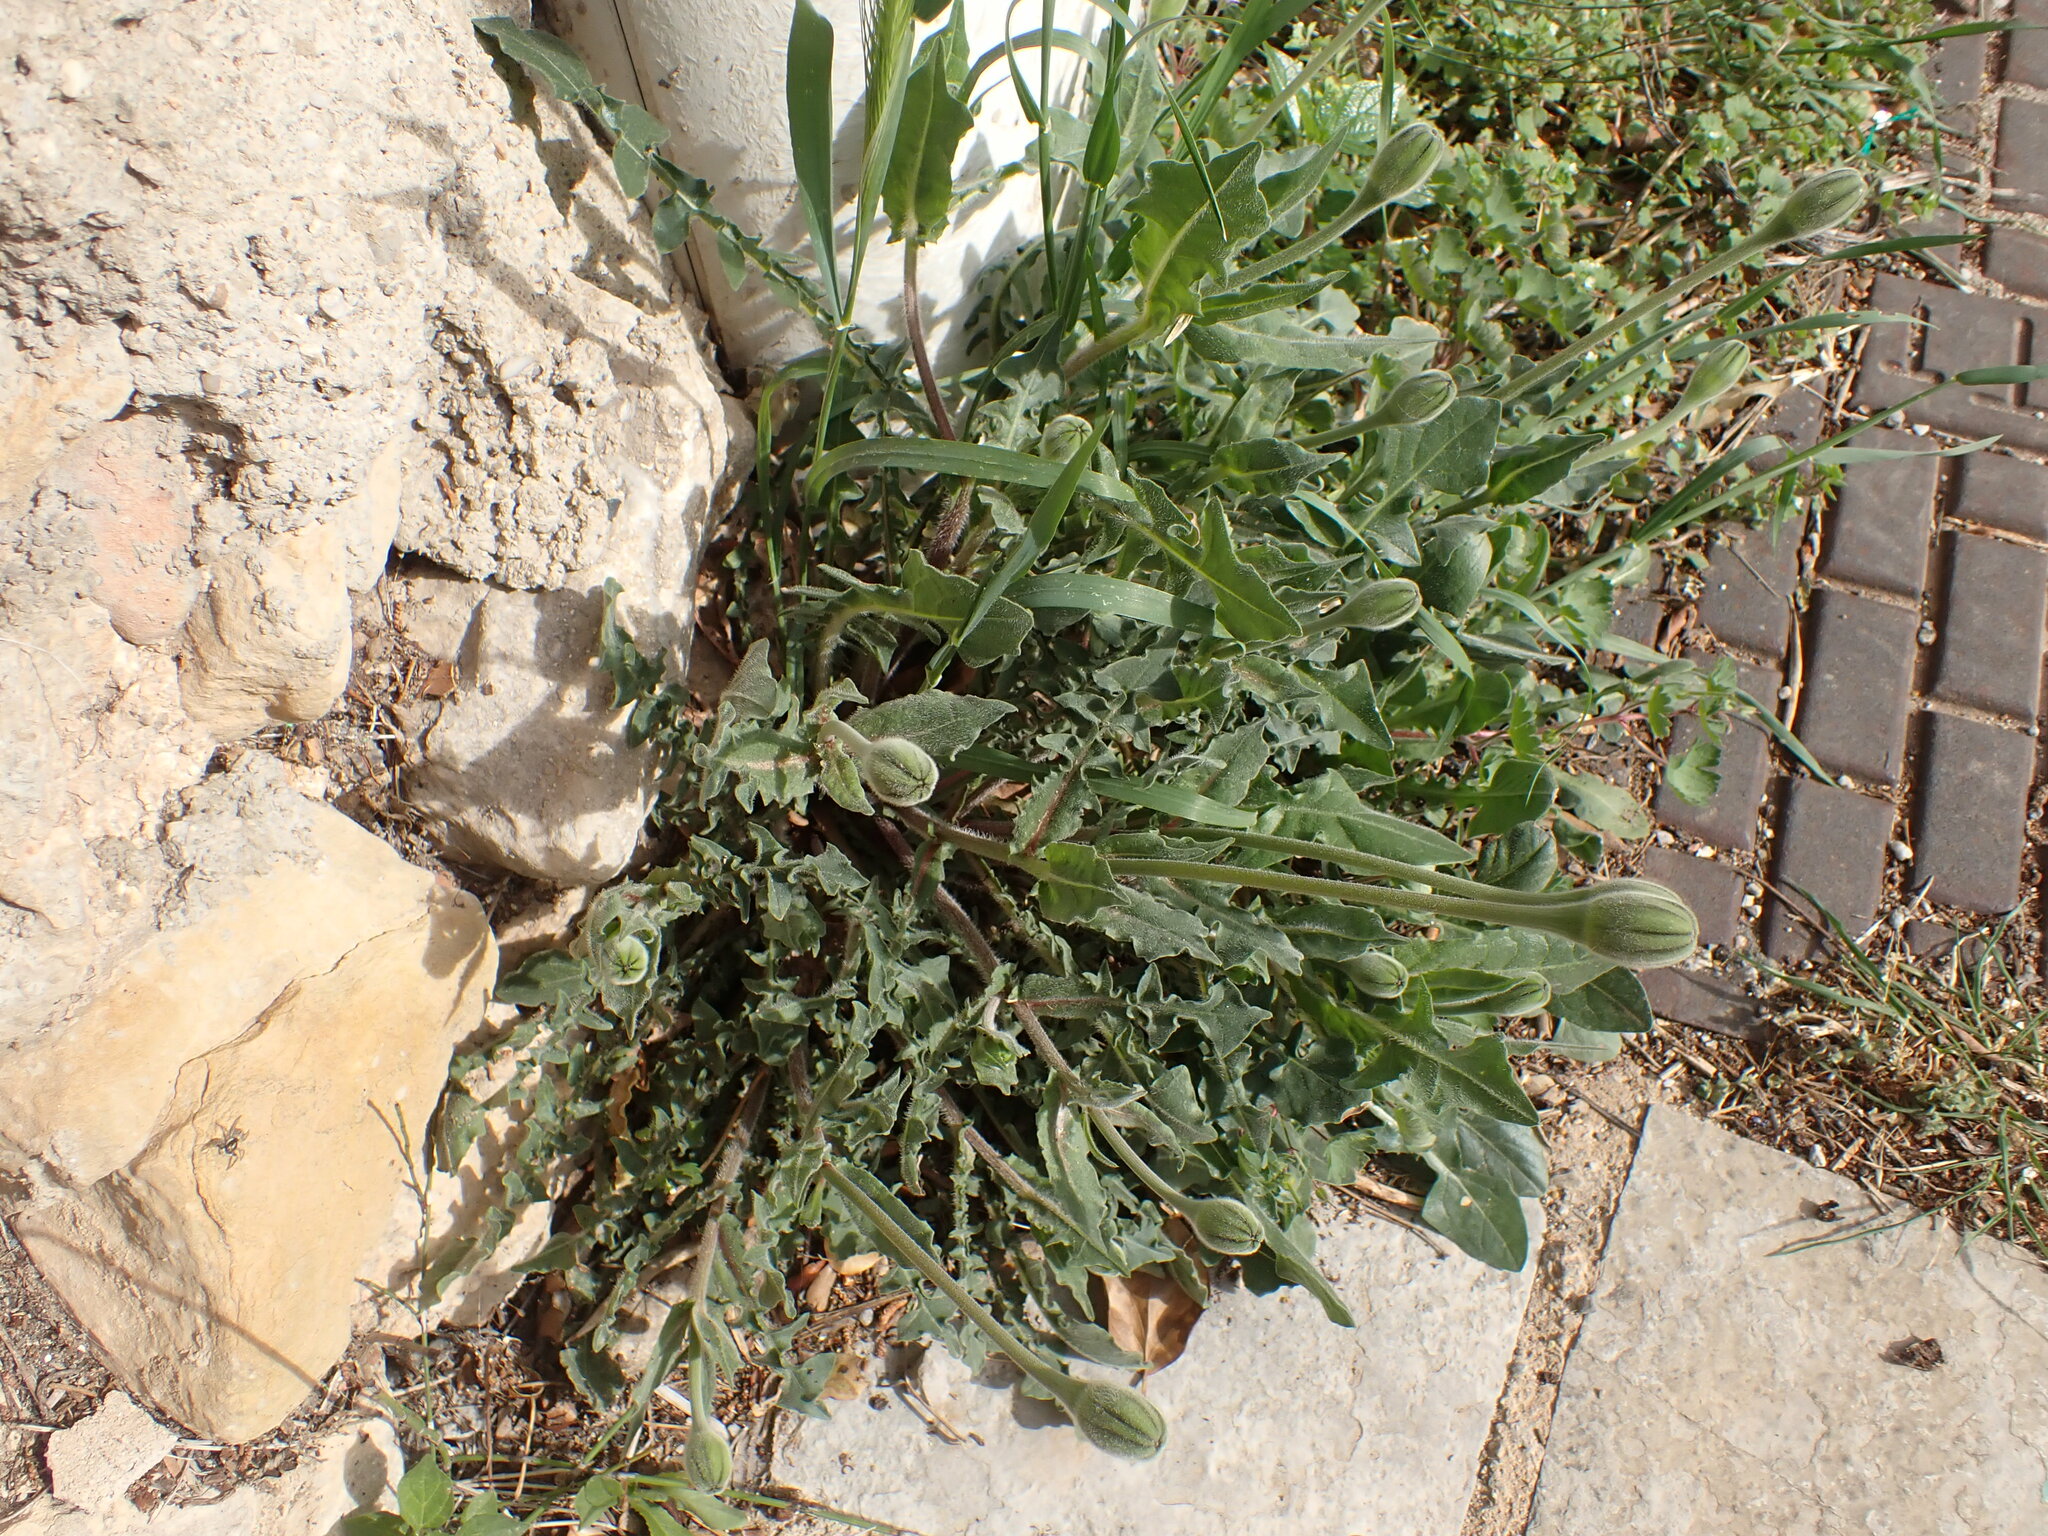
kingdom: Plantae
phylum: Tracheophyta
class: Magnoliopsida
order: Asterales
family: Asteraceae
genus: Urospermum
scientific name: Urospermum dalechampii
